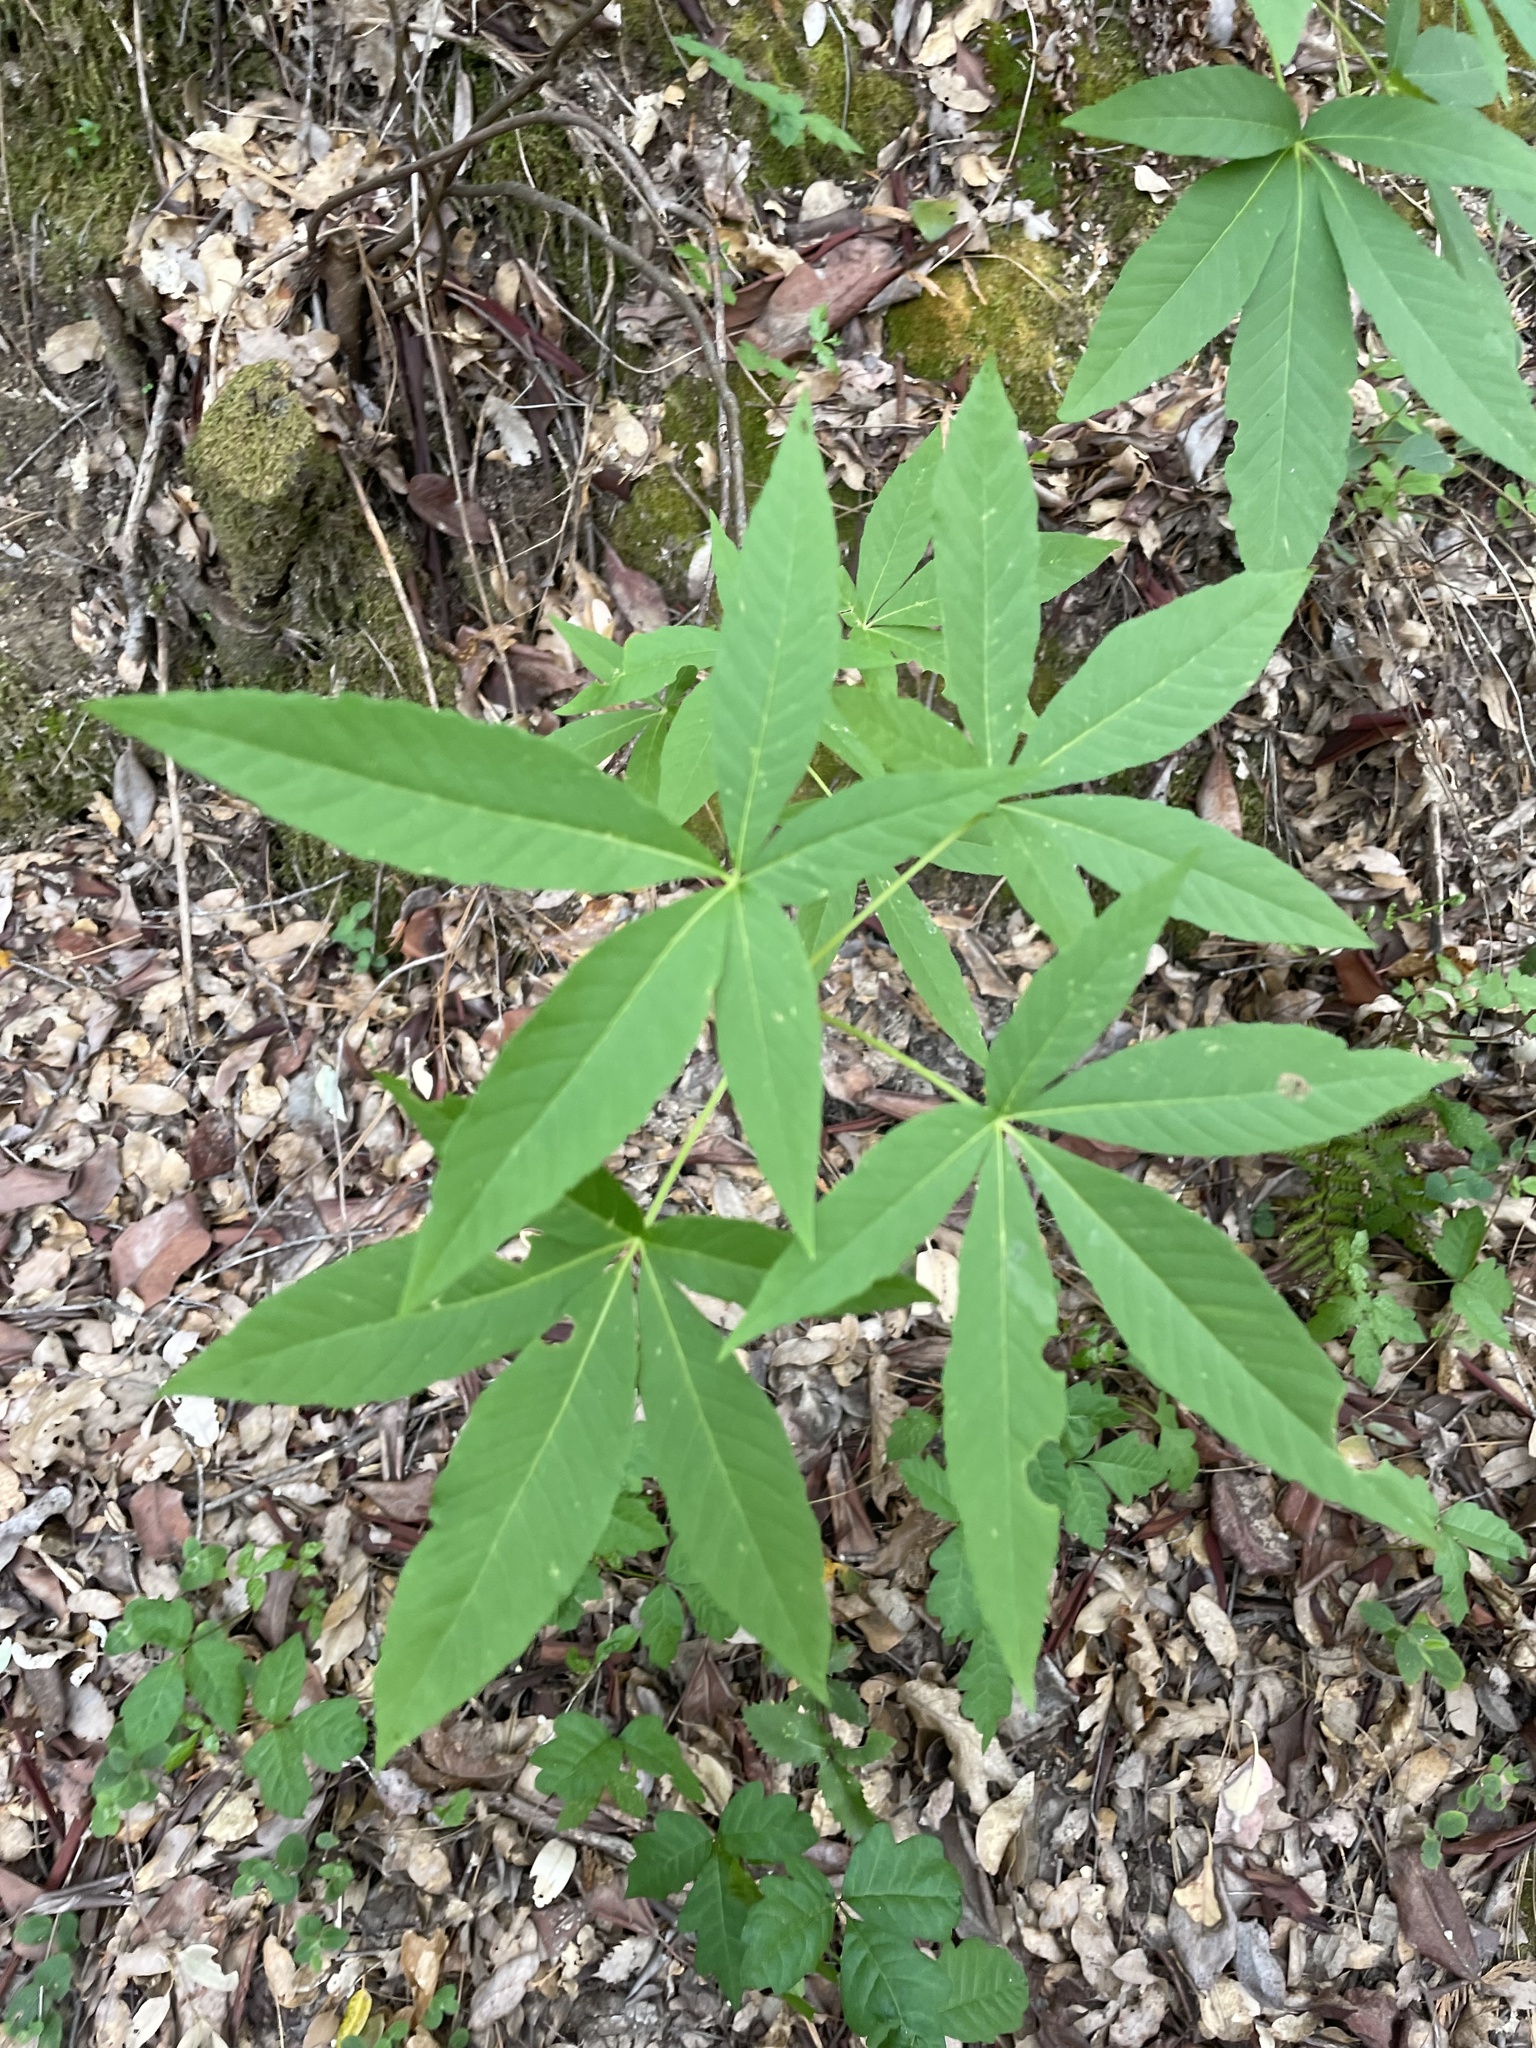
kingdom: Plantae
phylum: Tracheophyta
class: Magnoliopsida
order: Sapindales
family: Sapindaceae
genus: Aesculus
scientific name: Aesculus californica
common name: California buckeye
